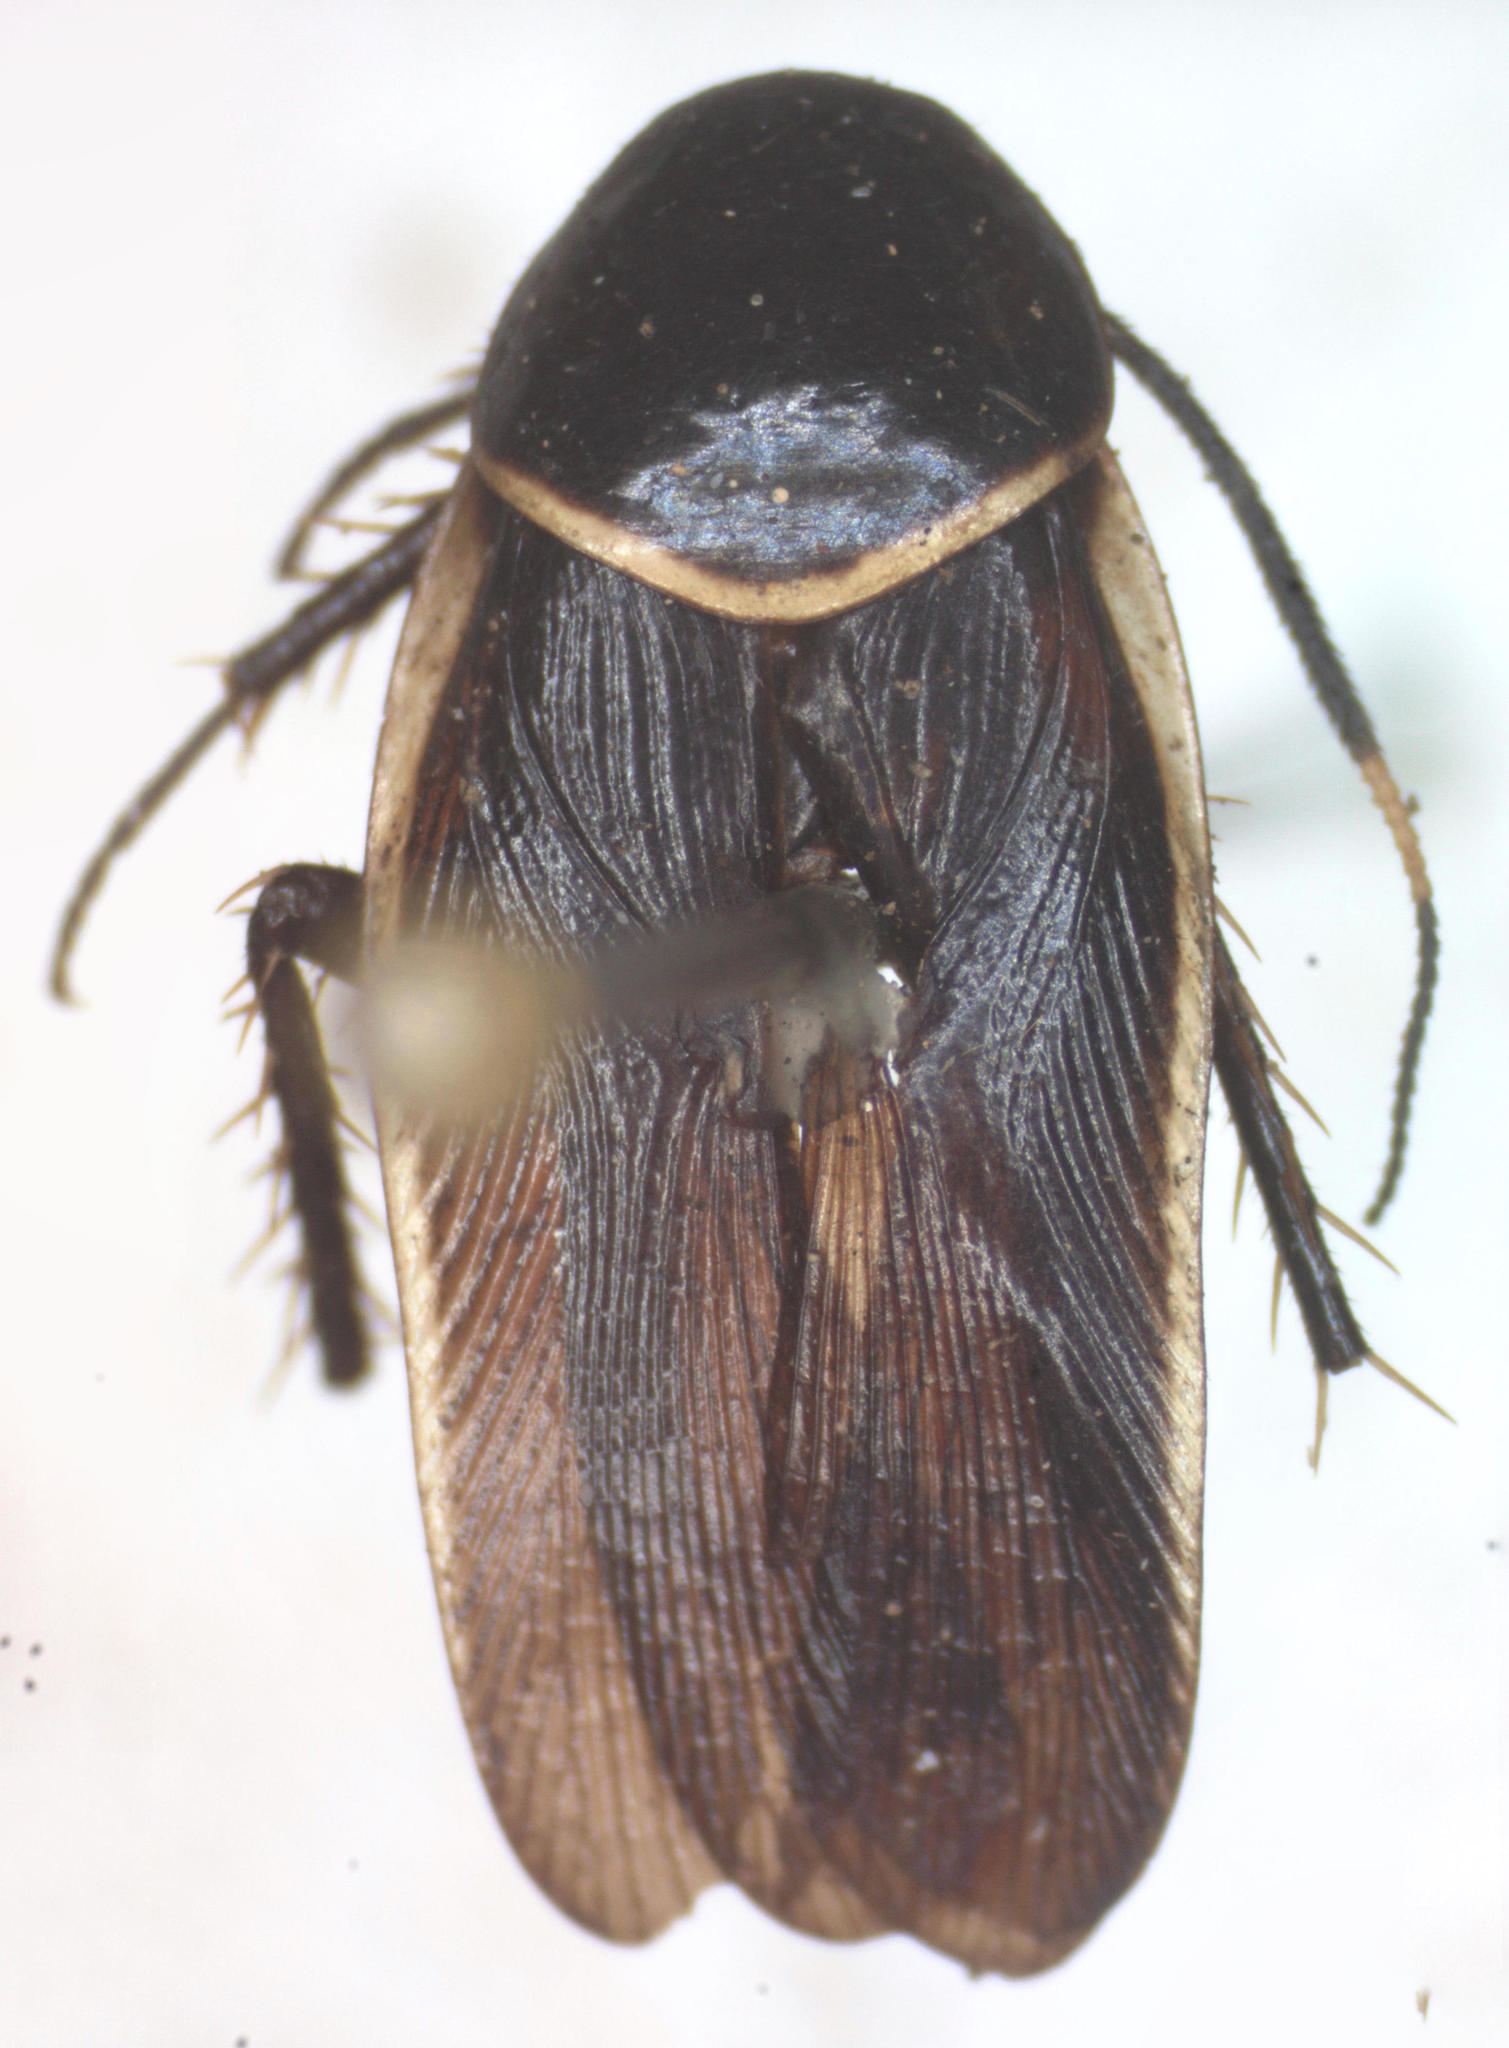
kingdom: Animalia
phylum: Arthropoda
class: Insecta
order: Blattodea
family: Ectobiidae
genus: Pseudomops
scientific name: Pseudomops cinctus
